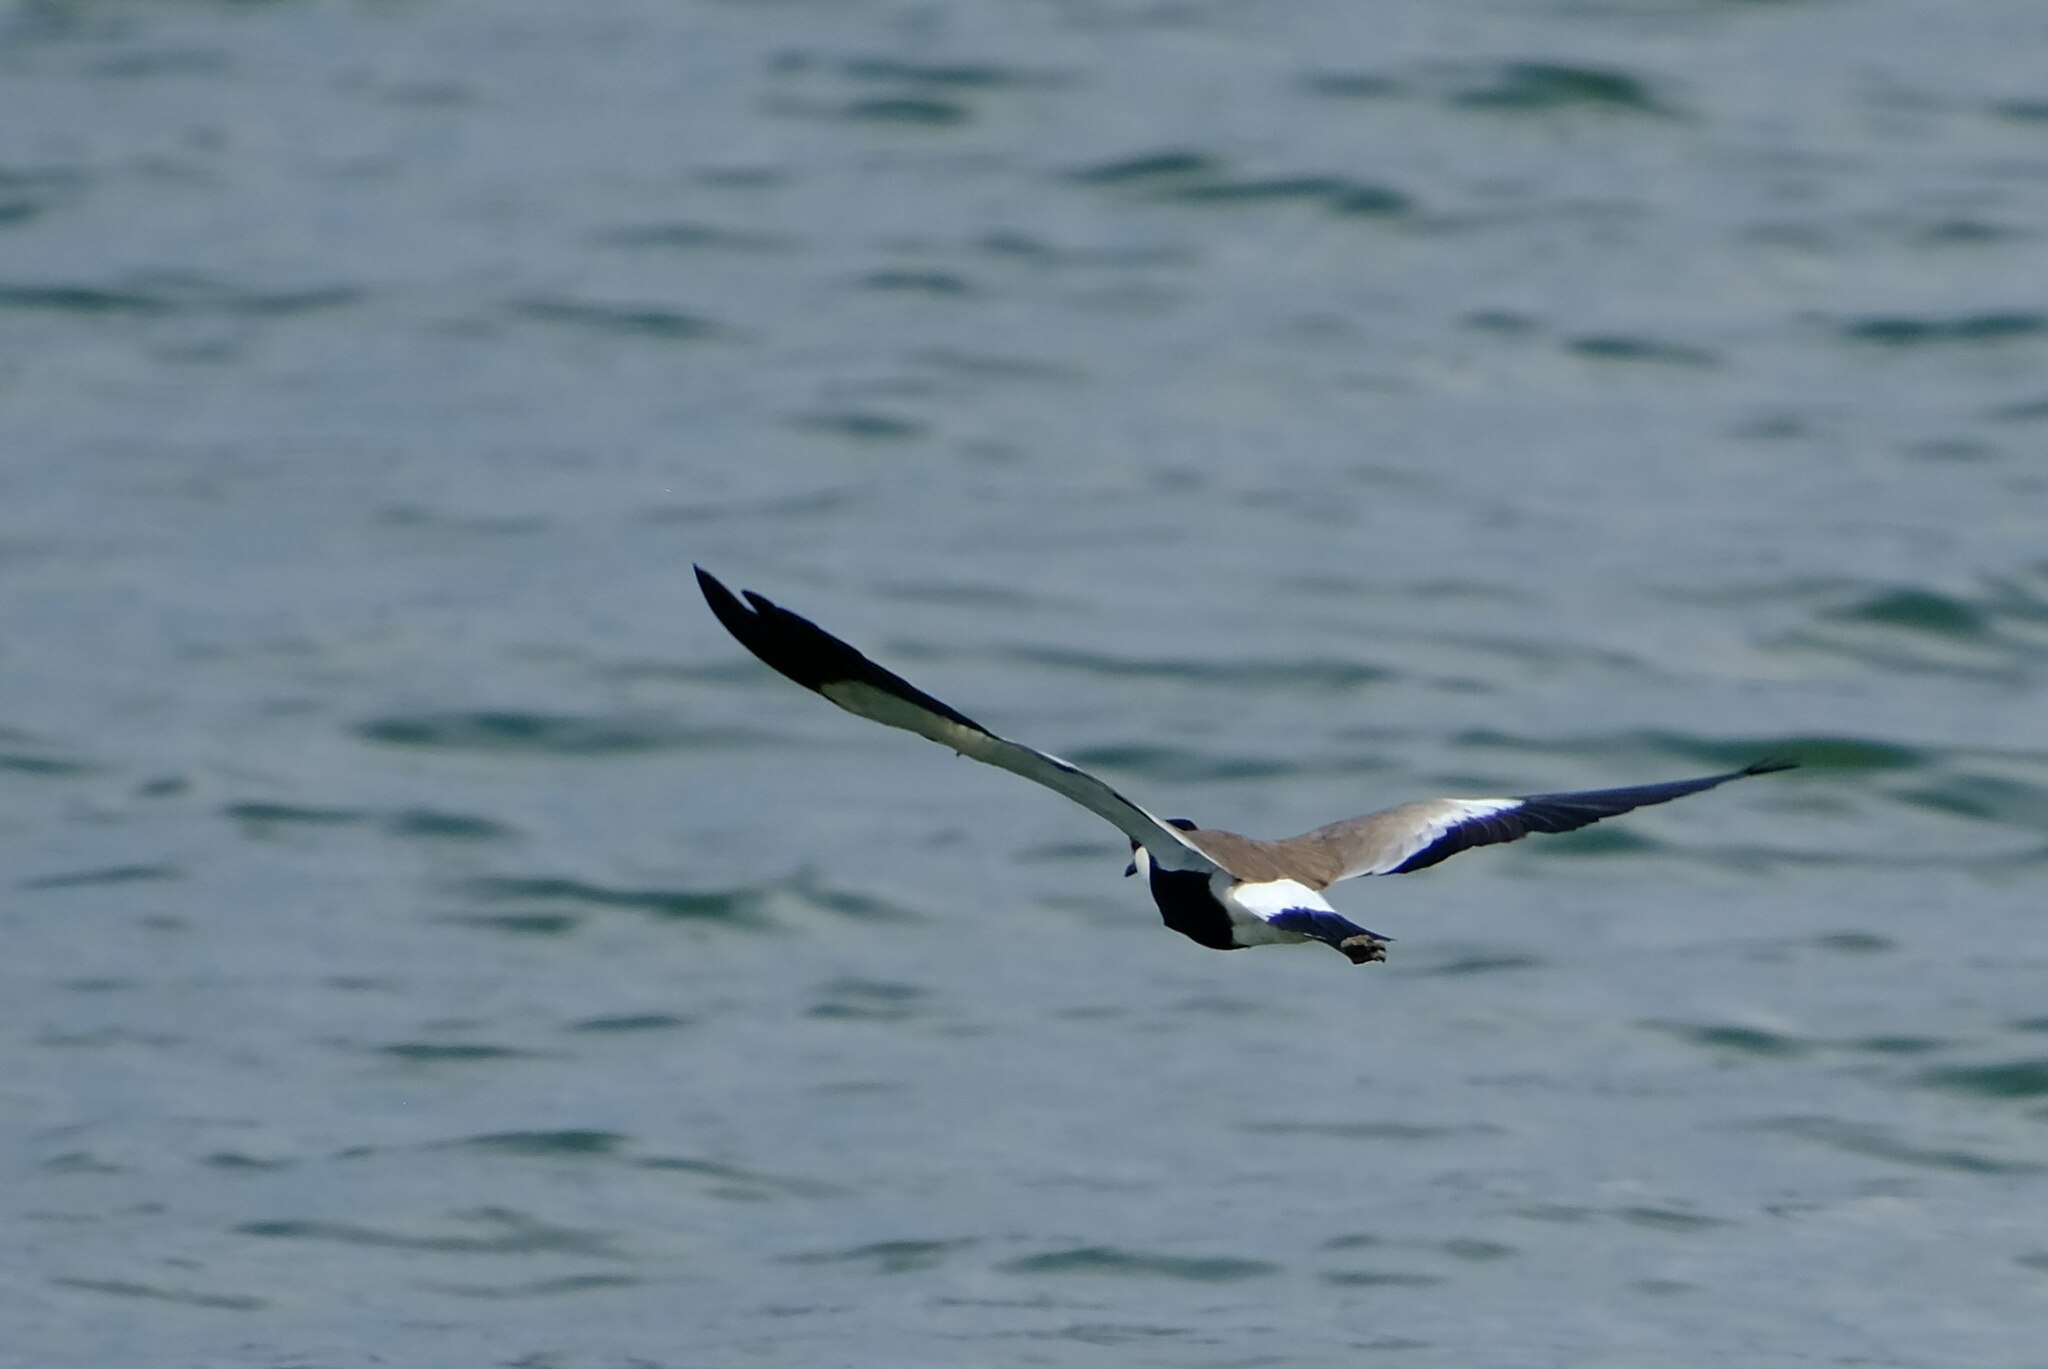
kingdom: Animalia
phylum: Chordata
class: Aves
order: Charadriiformes
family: Charadriidae
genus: Vanellus
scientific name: Vanellus spinosus
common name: Spur-winged lapwing
